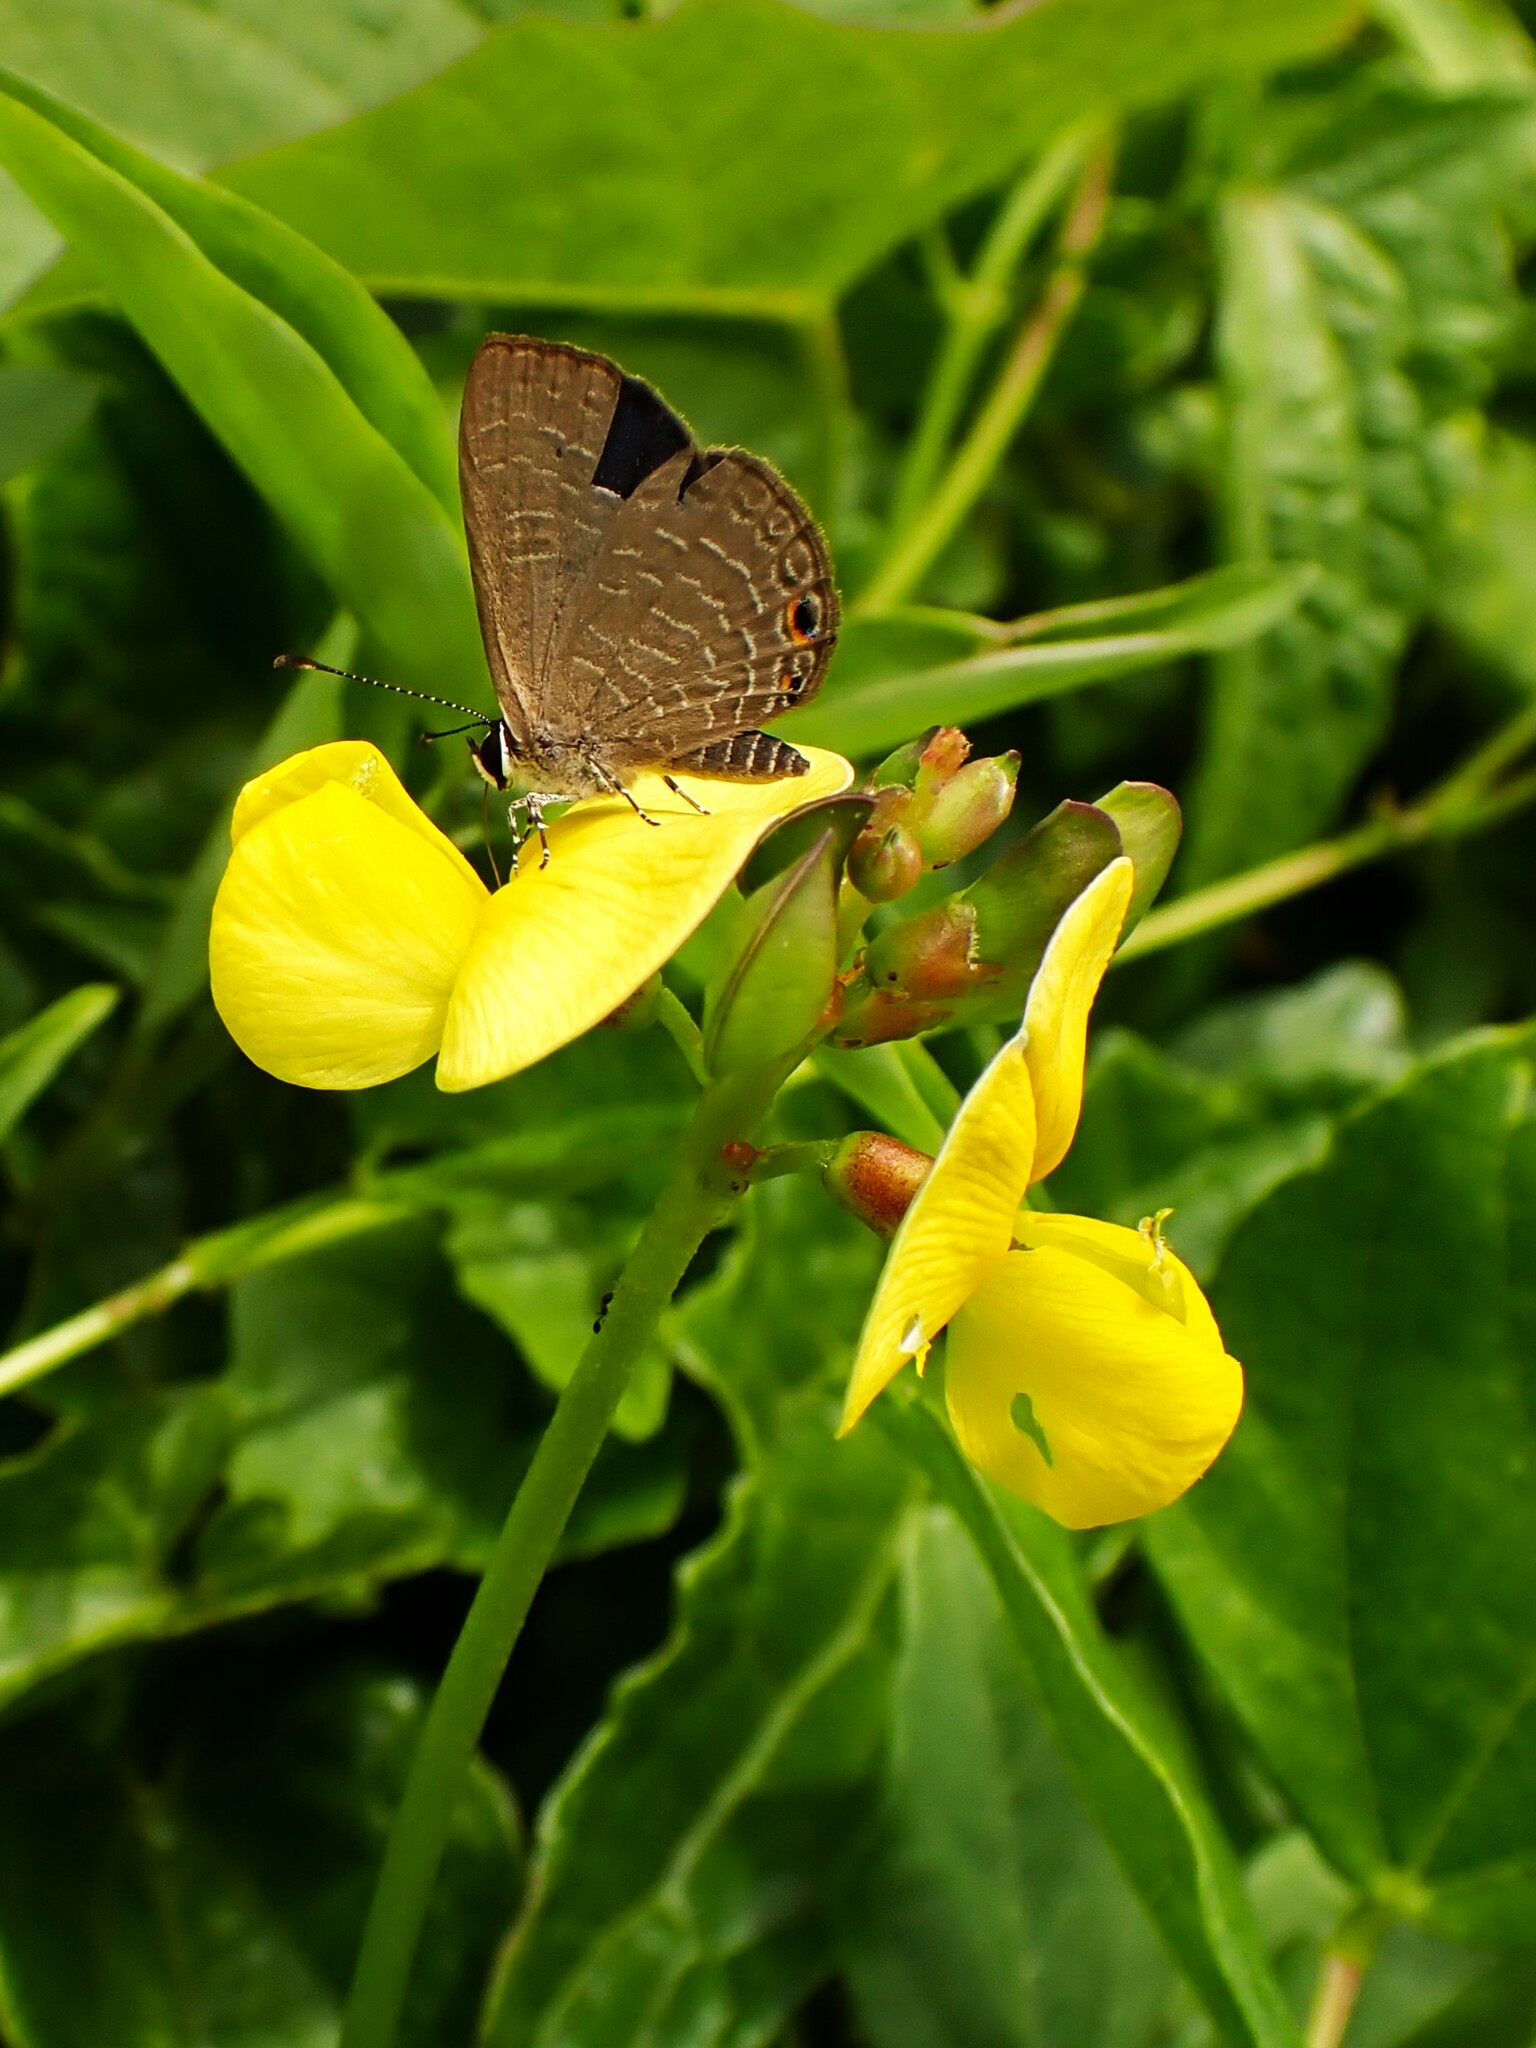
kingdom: Animalia
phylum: Arthropoda
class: Insecta
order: Lepidoptera
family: Lycaenidae
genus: Jamides
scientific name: Jamides walkeri
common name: Cook islands blue
